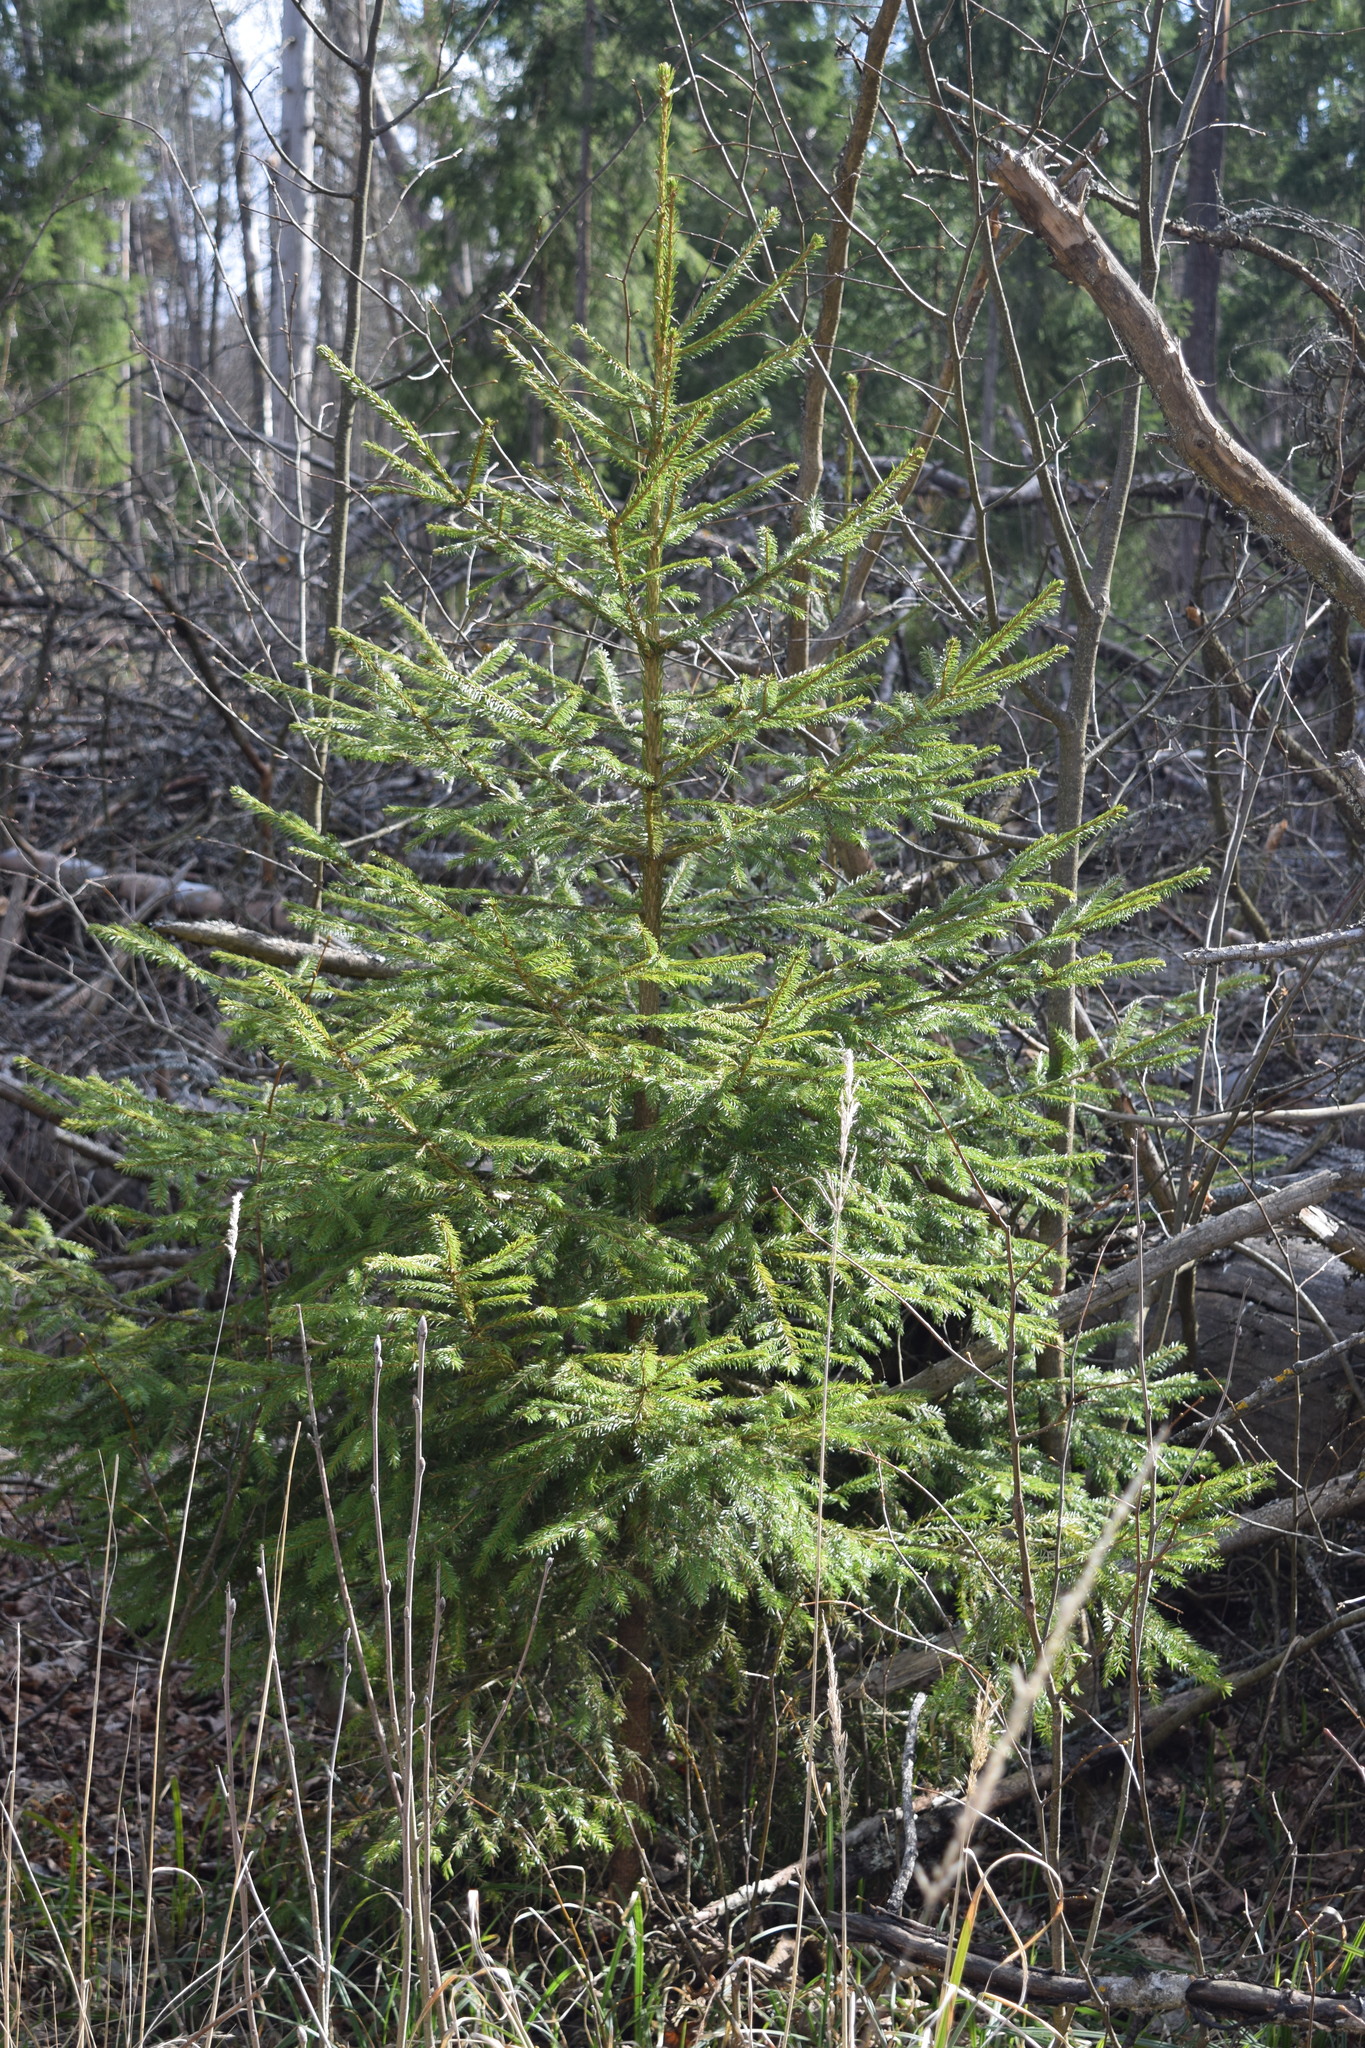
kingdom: Plantae
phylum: Tracheophyta
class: Pinopsida
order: Pinales
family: Pinaceae
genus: Picea
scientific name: Picea abies
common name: Norway spruce
